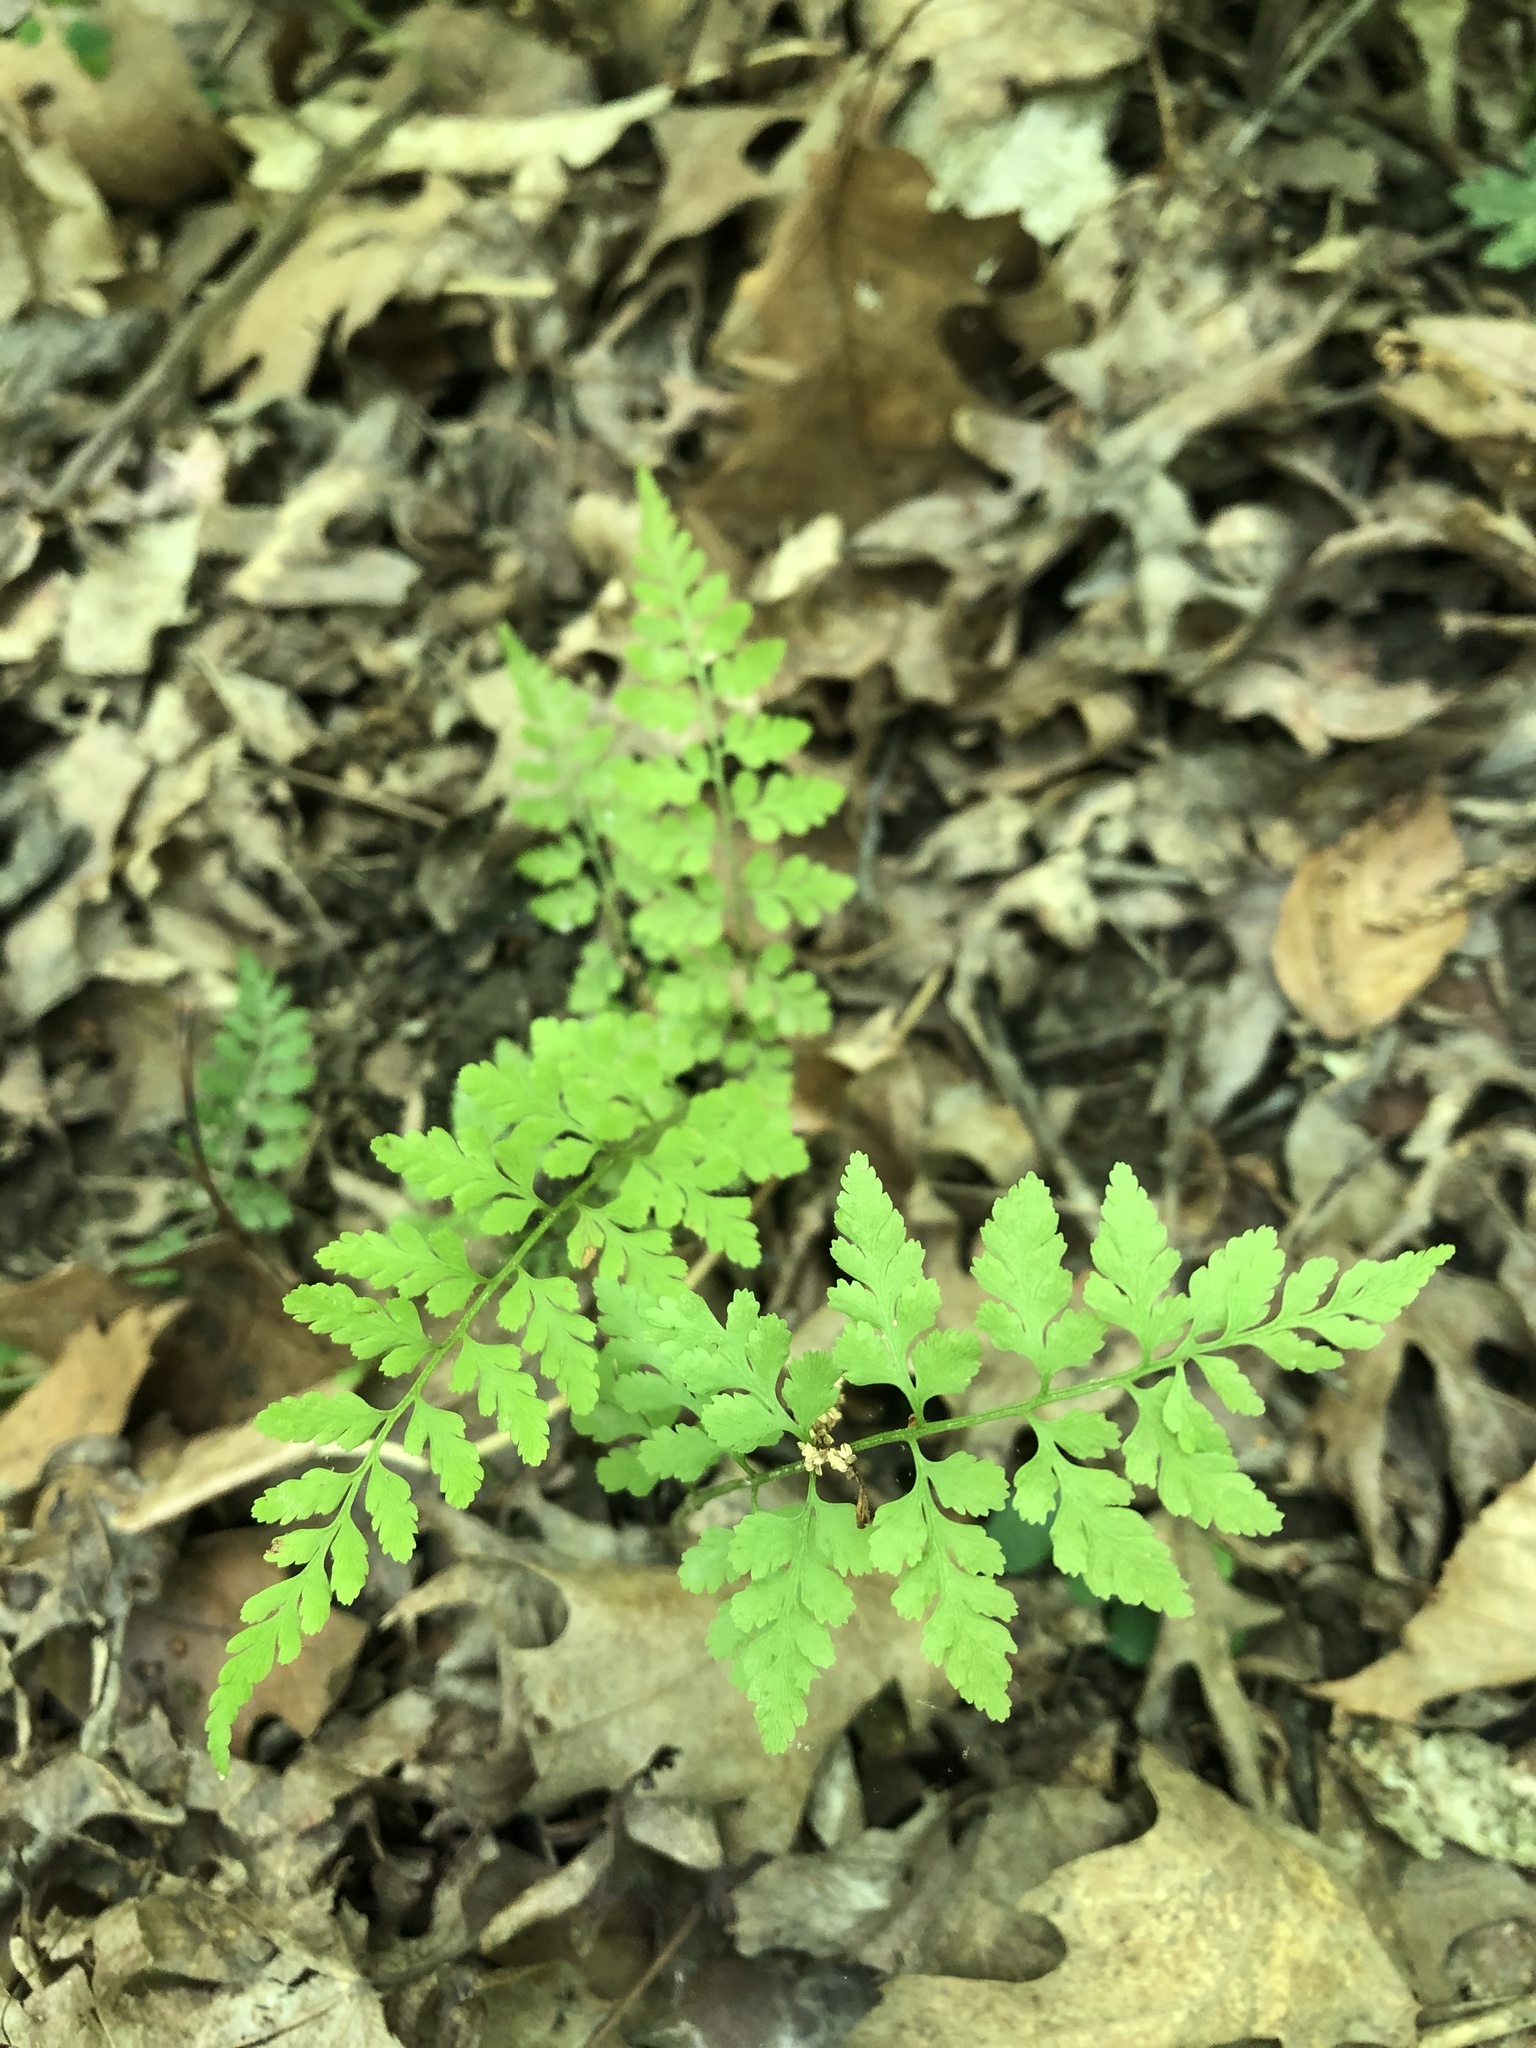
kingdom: Plantae
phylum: Tracheophyta
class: Polypodiopsida
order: Polypodiales
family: Cystopteridaceae
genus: Cystopteris
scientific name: Cystopteris protrusa
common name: Lowland brittle fern
